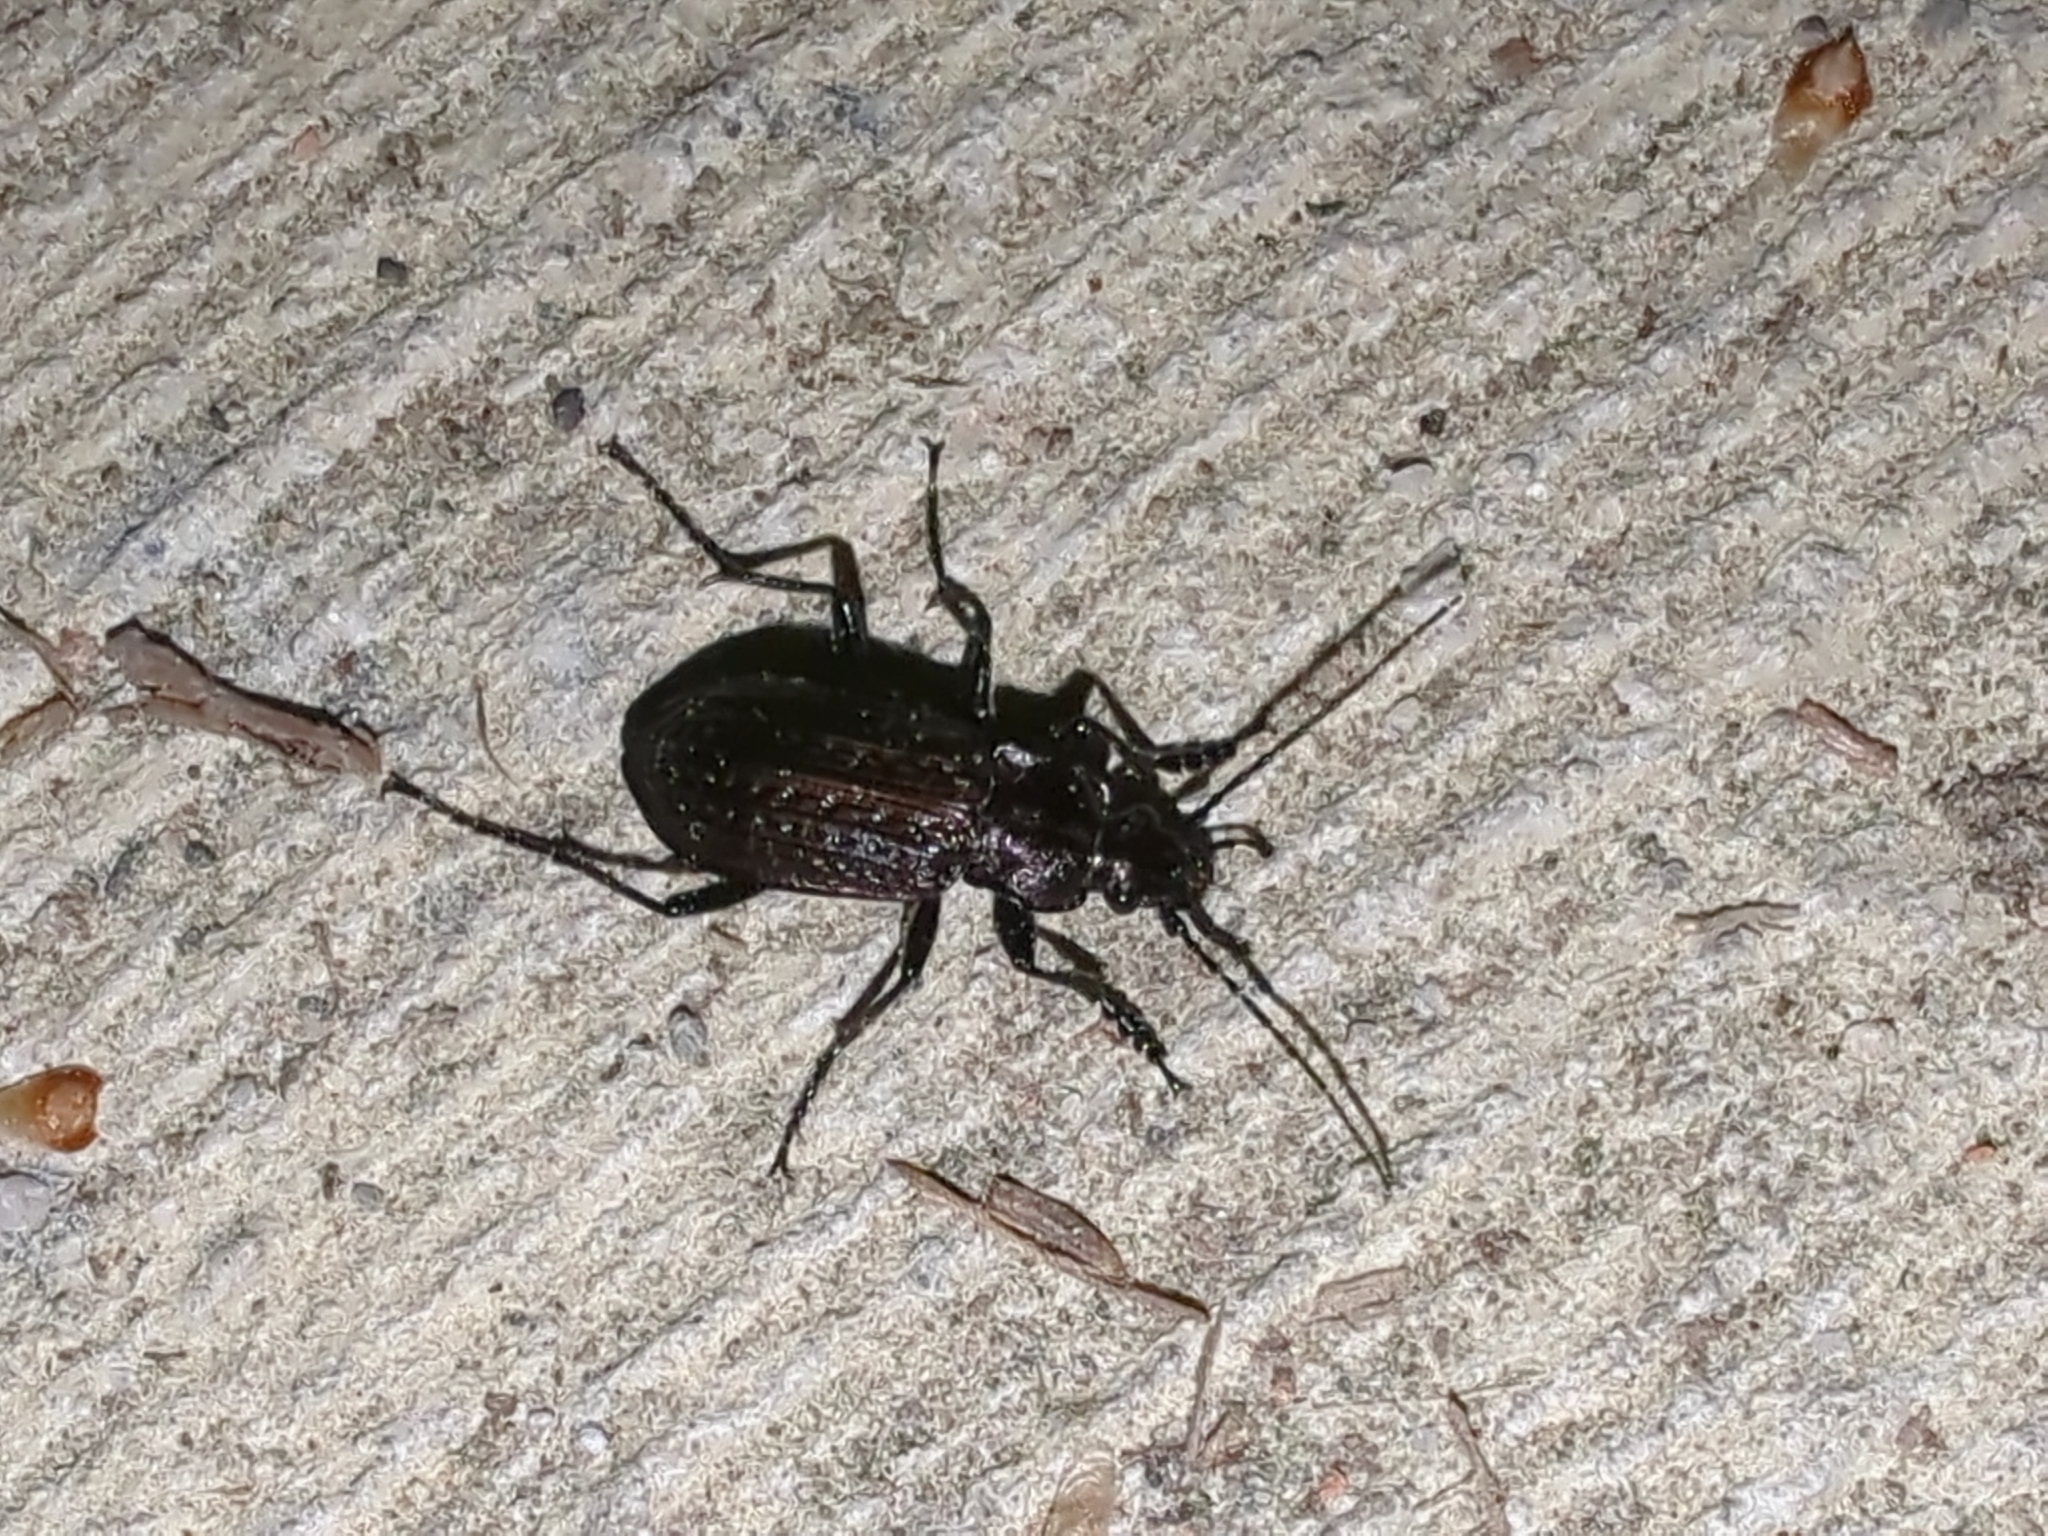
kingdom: Animalia
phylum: Arthropoda
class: Insecta
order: Coleoptera
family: Carabidae
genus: Carabus
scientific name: Carabus granulatus
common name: Granulate ground beetle
